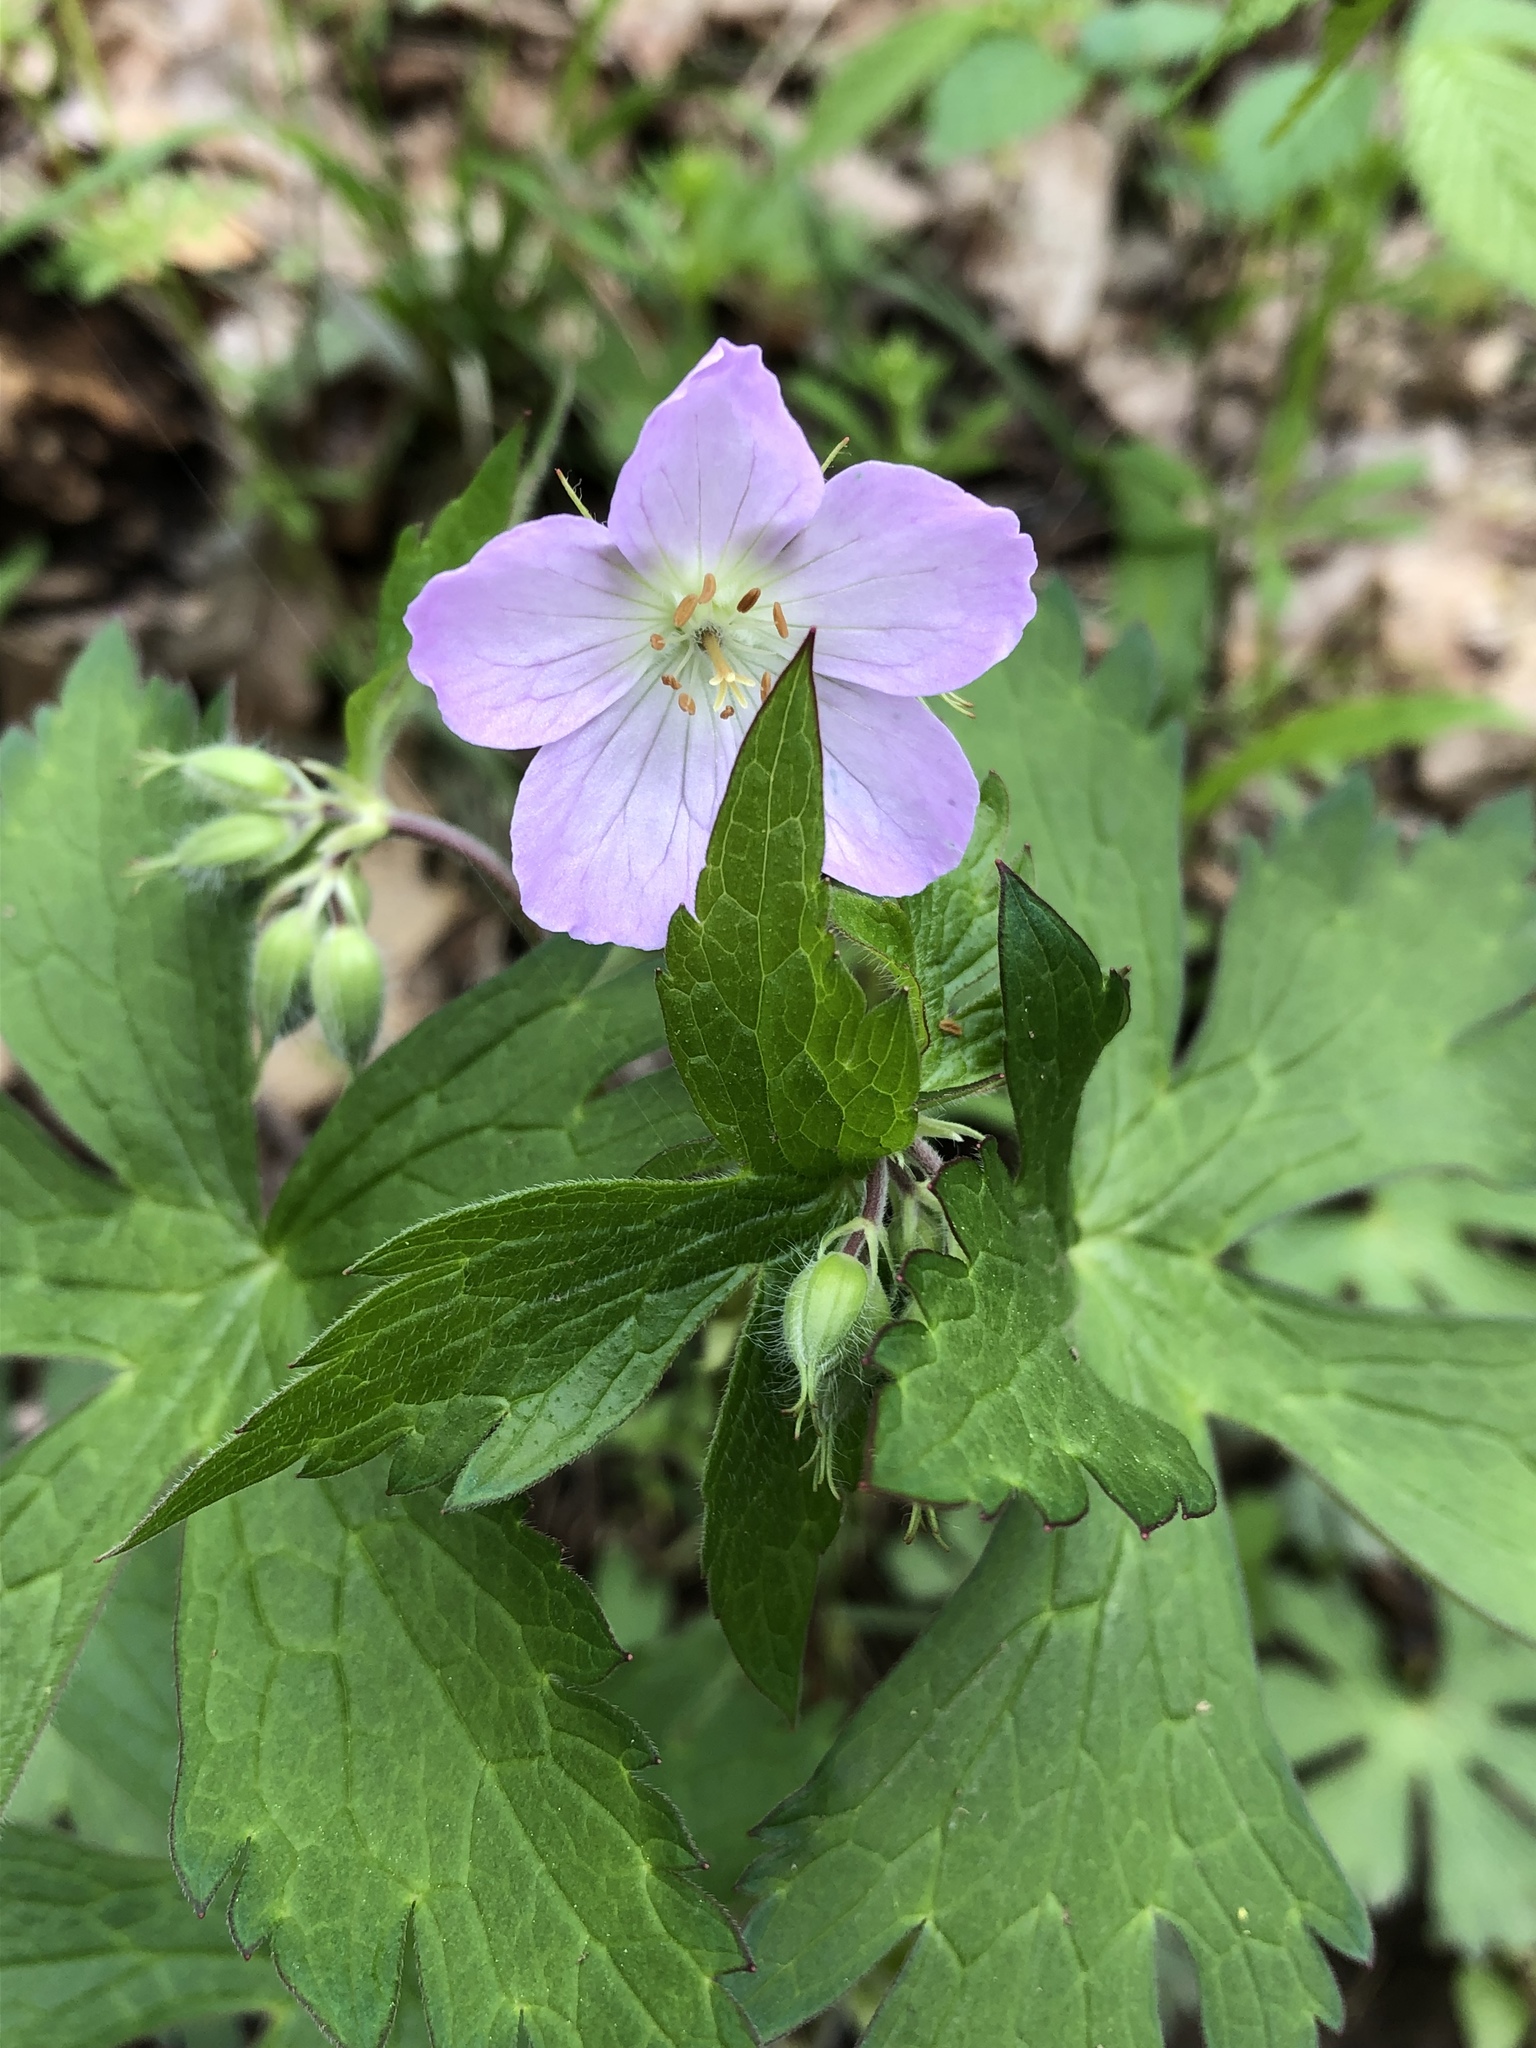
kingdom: Plantae
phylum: Tracheophyta
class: Magnoliopsida
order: Geraniales
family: Geraniaceae
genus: Geranium
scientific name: Geranium maculatum
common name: Spotted geranium
